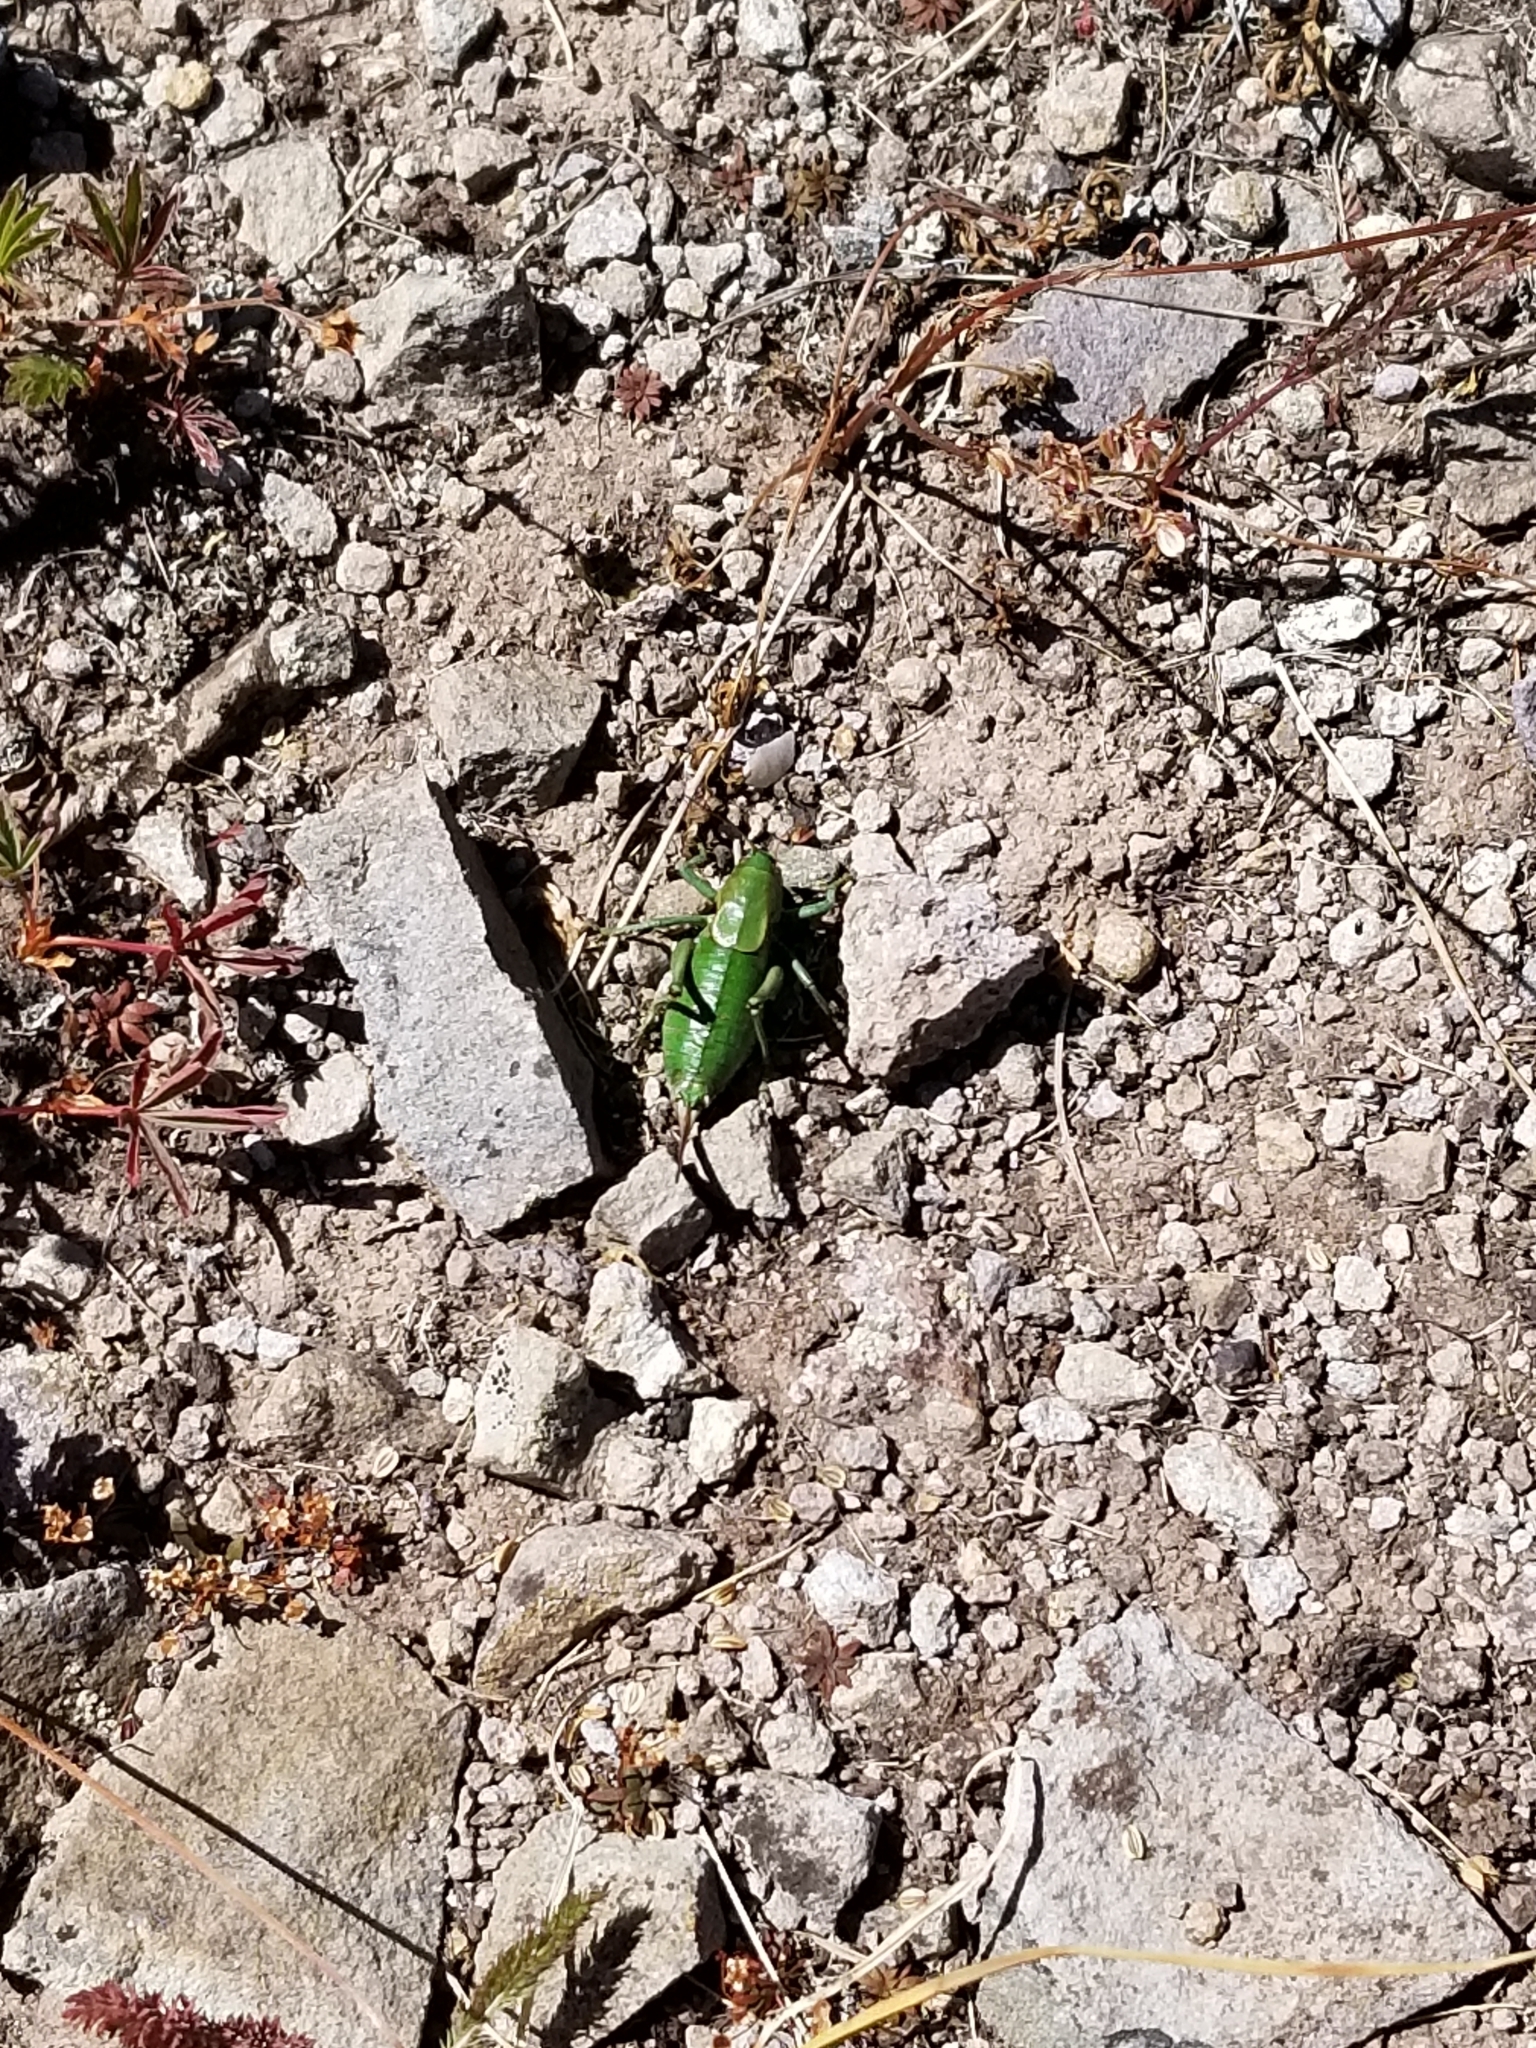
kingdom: Animalia
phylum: Arthropoda
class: Insecta
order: Orthoptera
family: Tettigoniidae
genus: Anabrus
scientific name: Anabrus simplex
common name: Mormon cricket
